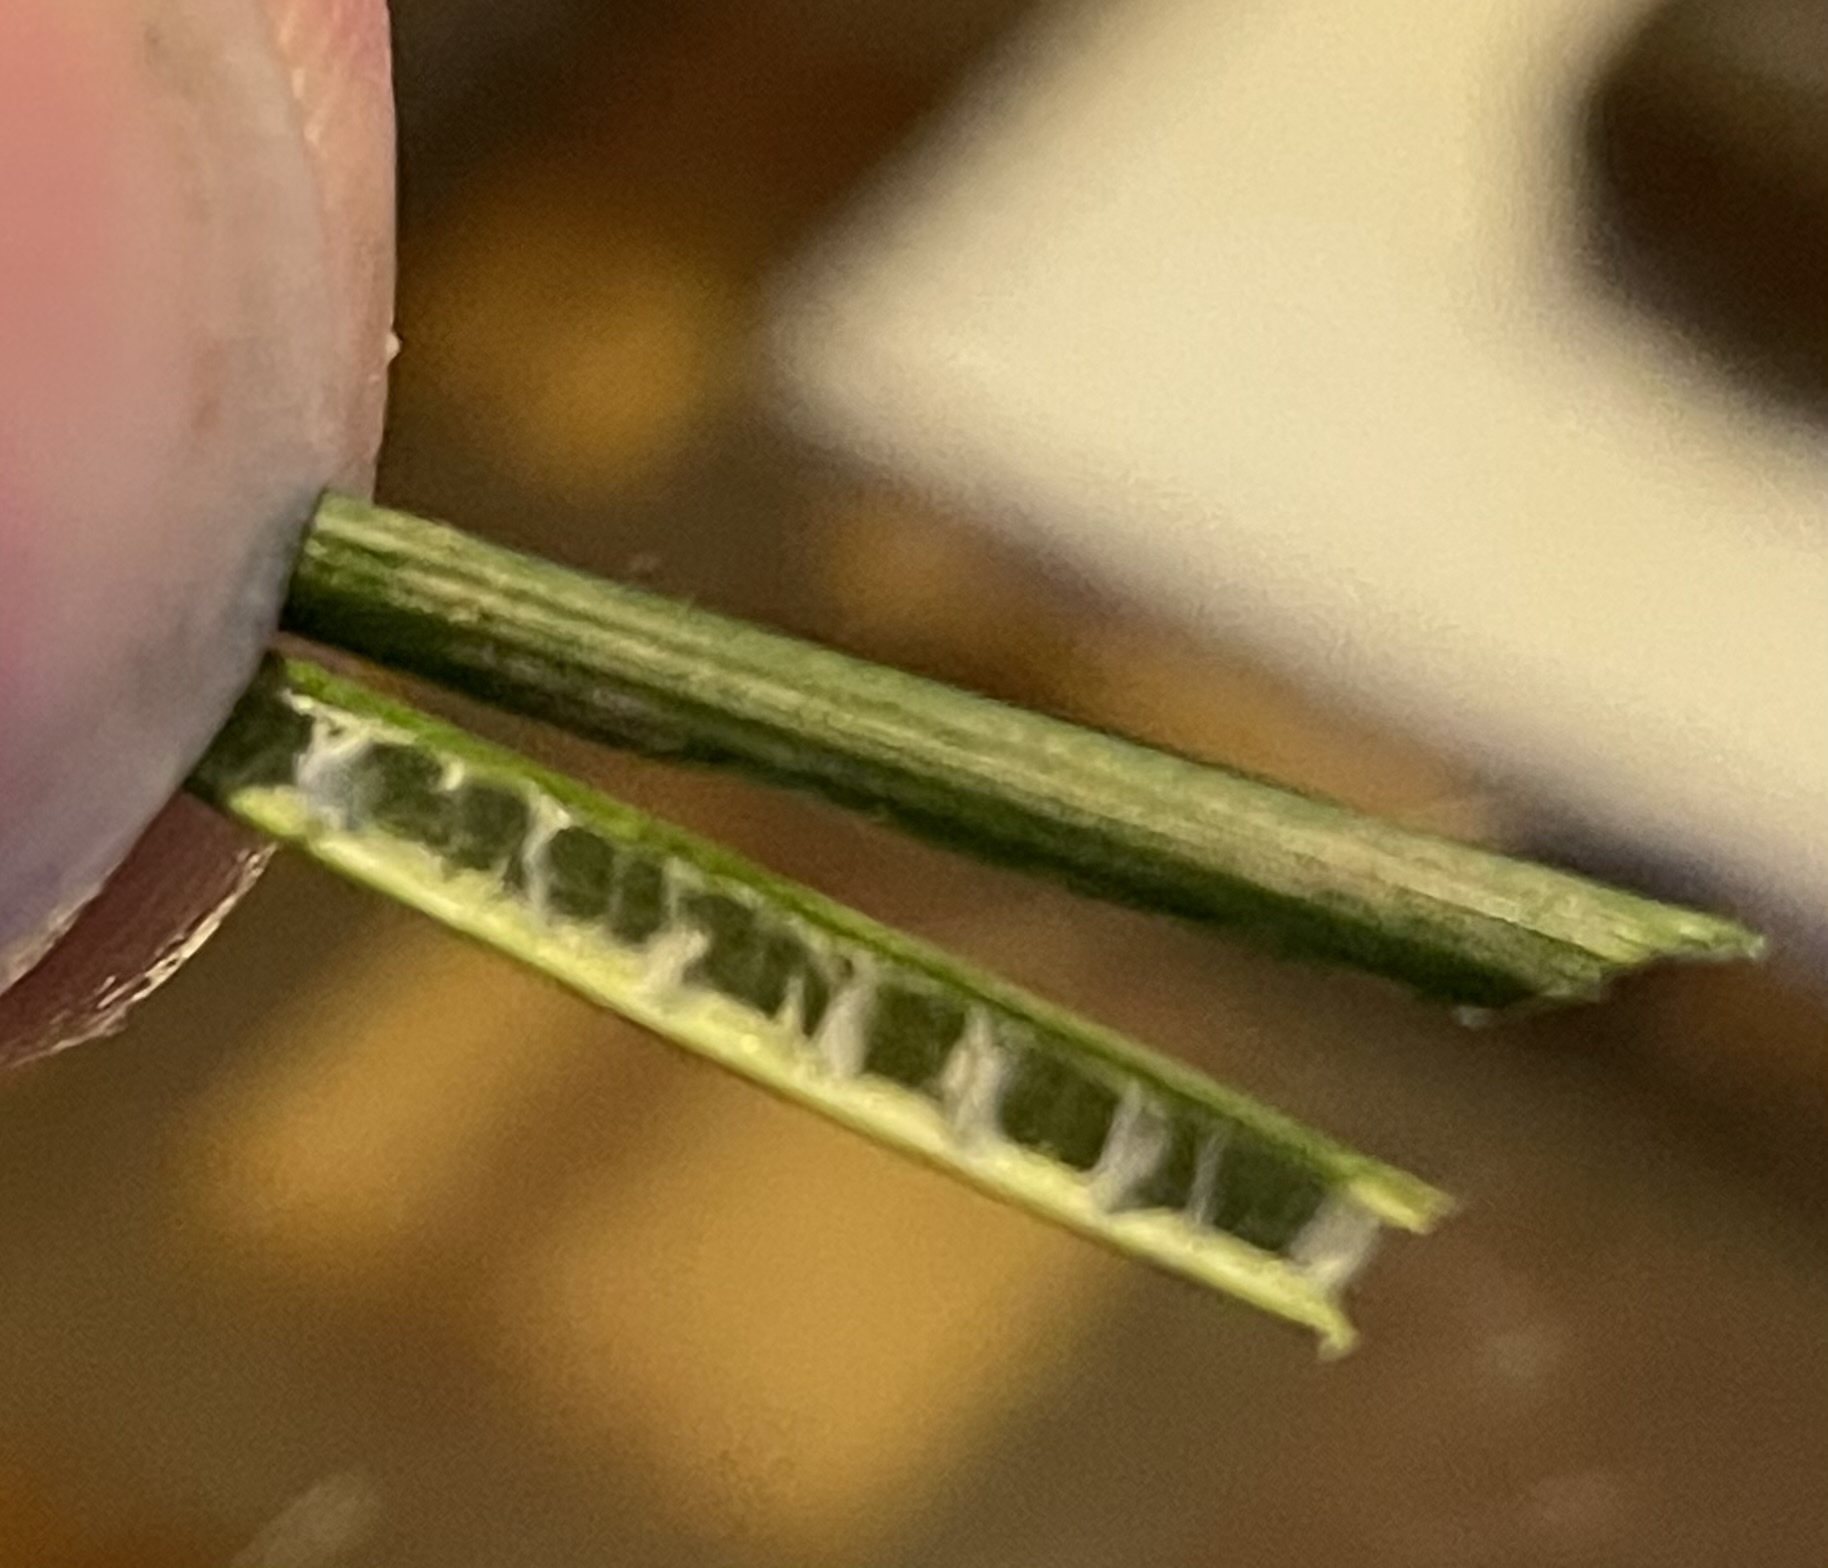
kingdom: Plantae
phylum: Tracheophyta
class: Liliopsida
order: Poales
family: Juncaceae
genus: Juncus
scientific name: Juncus inflexus
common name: Hard rush
